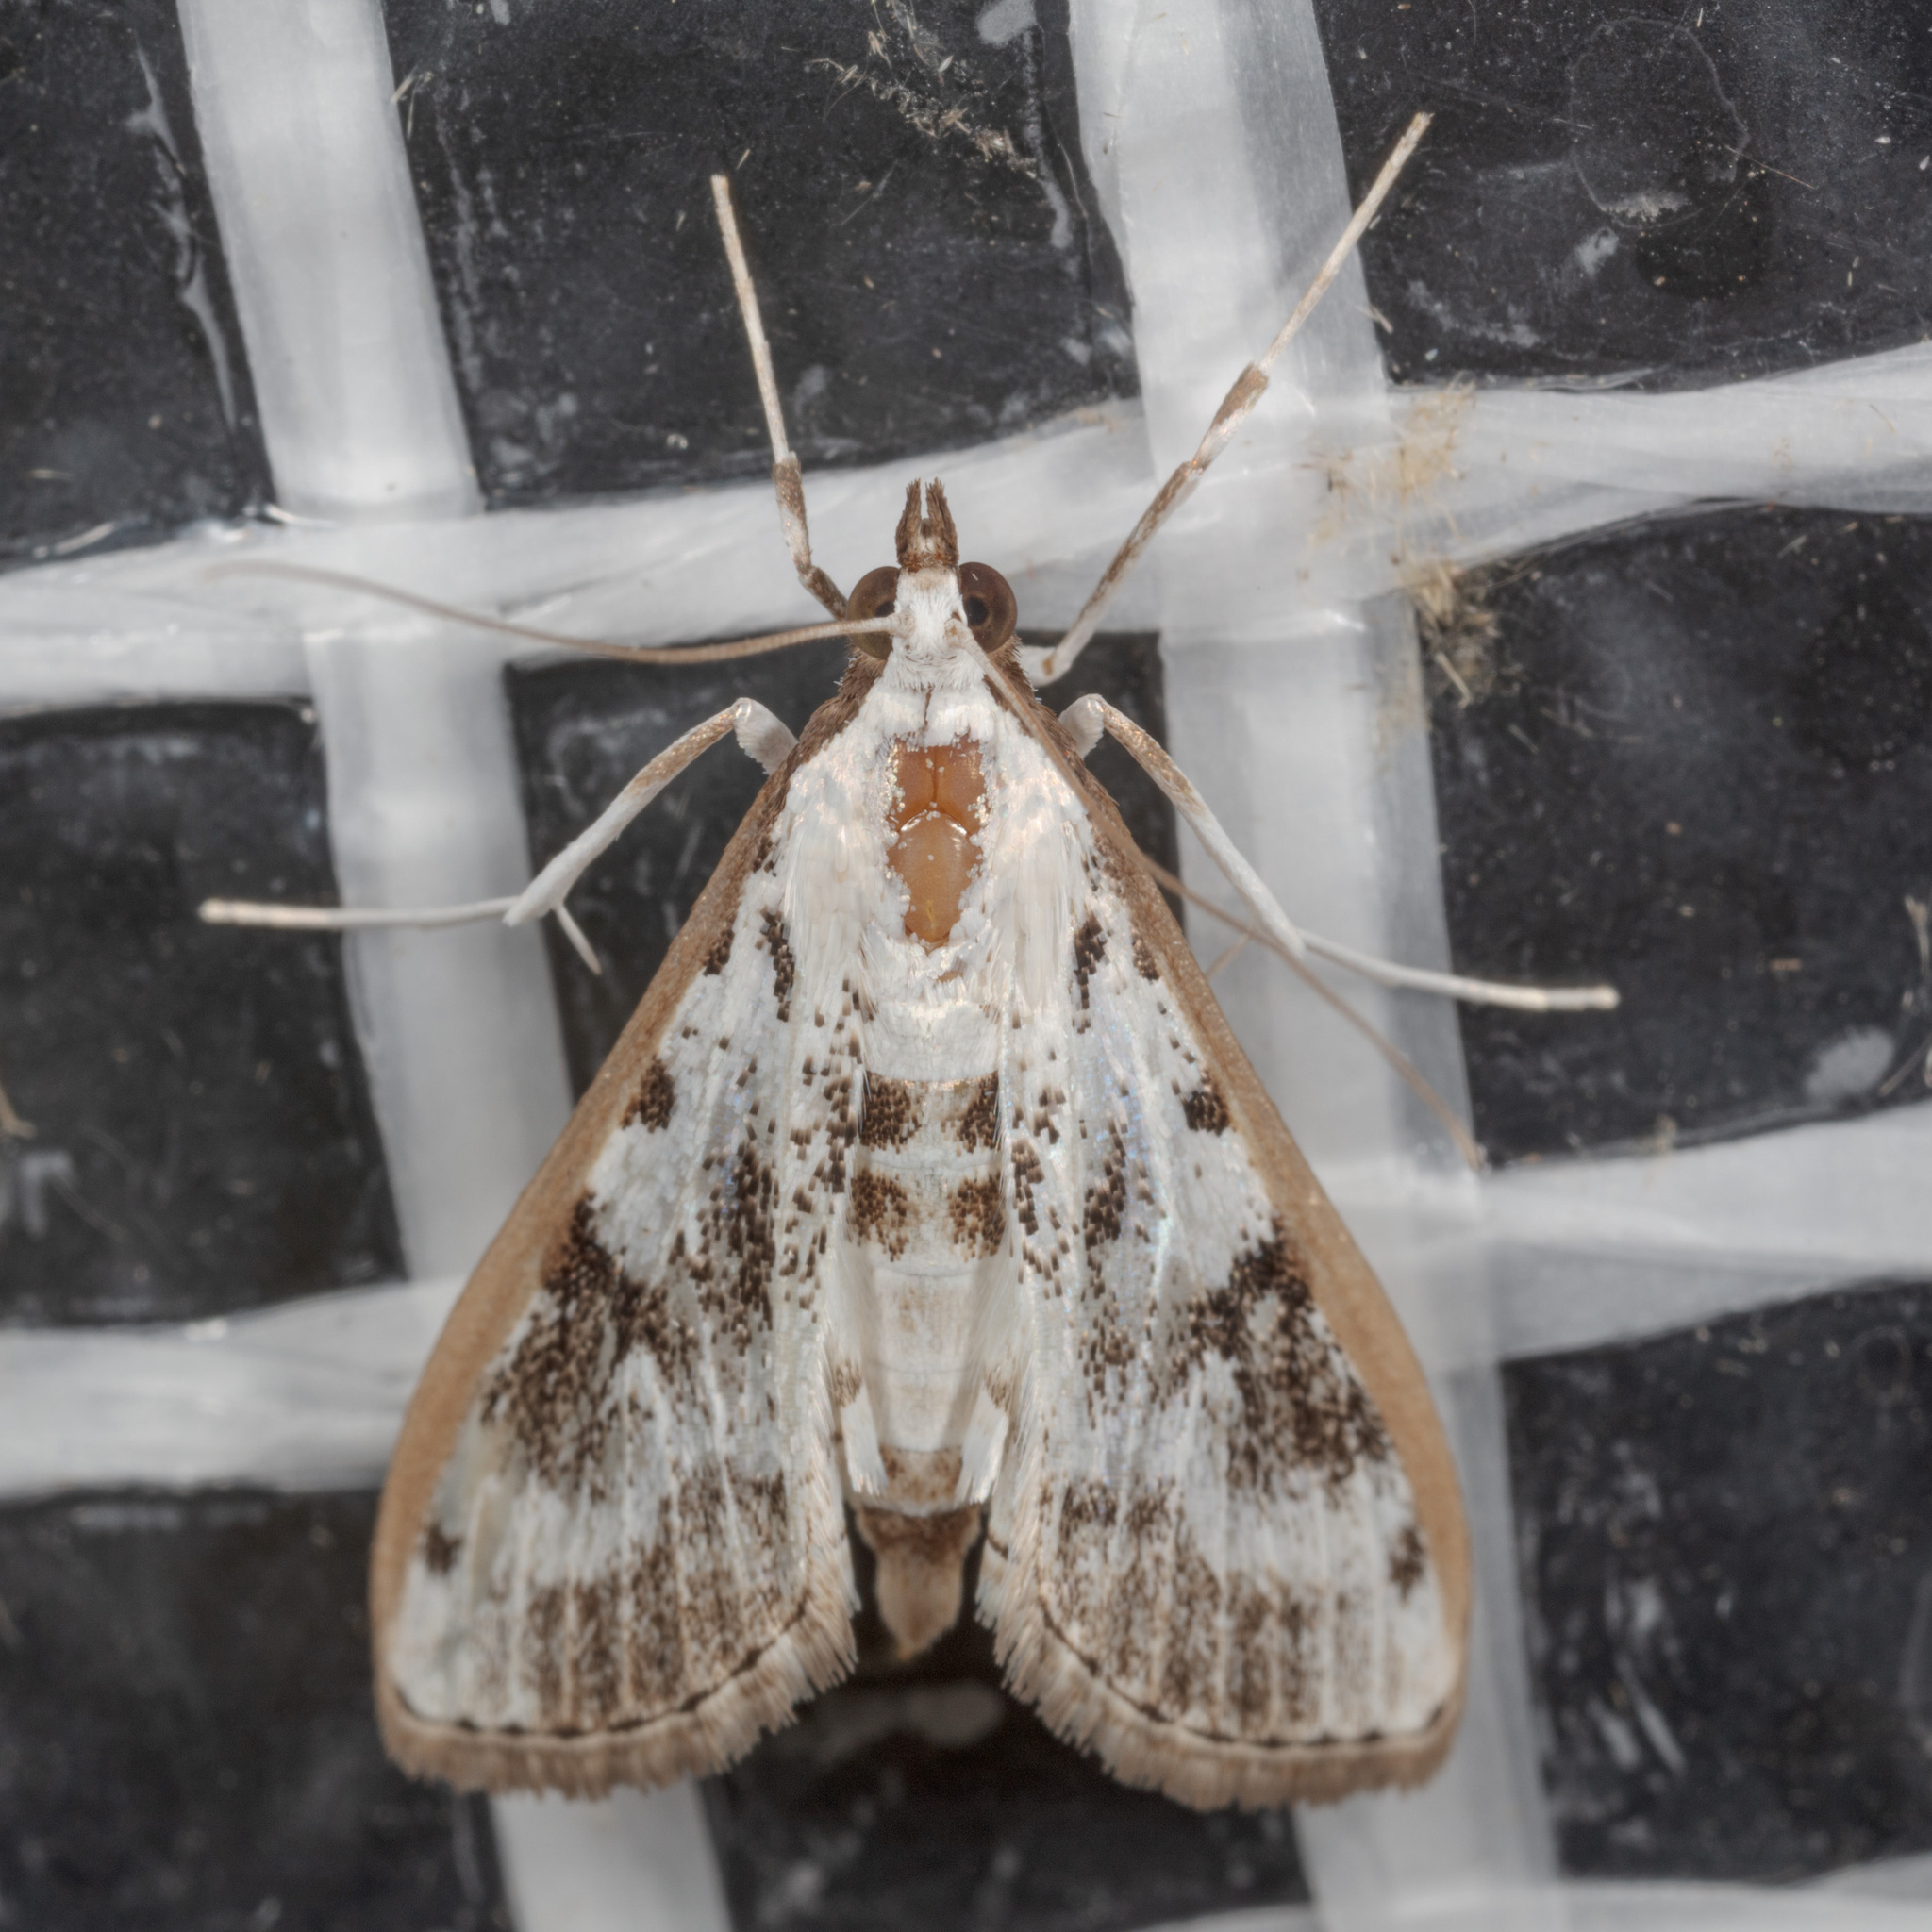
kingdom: Animalia
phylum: Arthropoda
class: Insecta
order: Lepidoptera
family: Crambidae
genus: Palpita
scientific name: Palpita gracilalis
